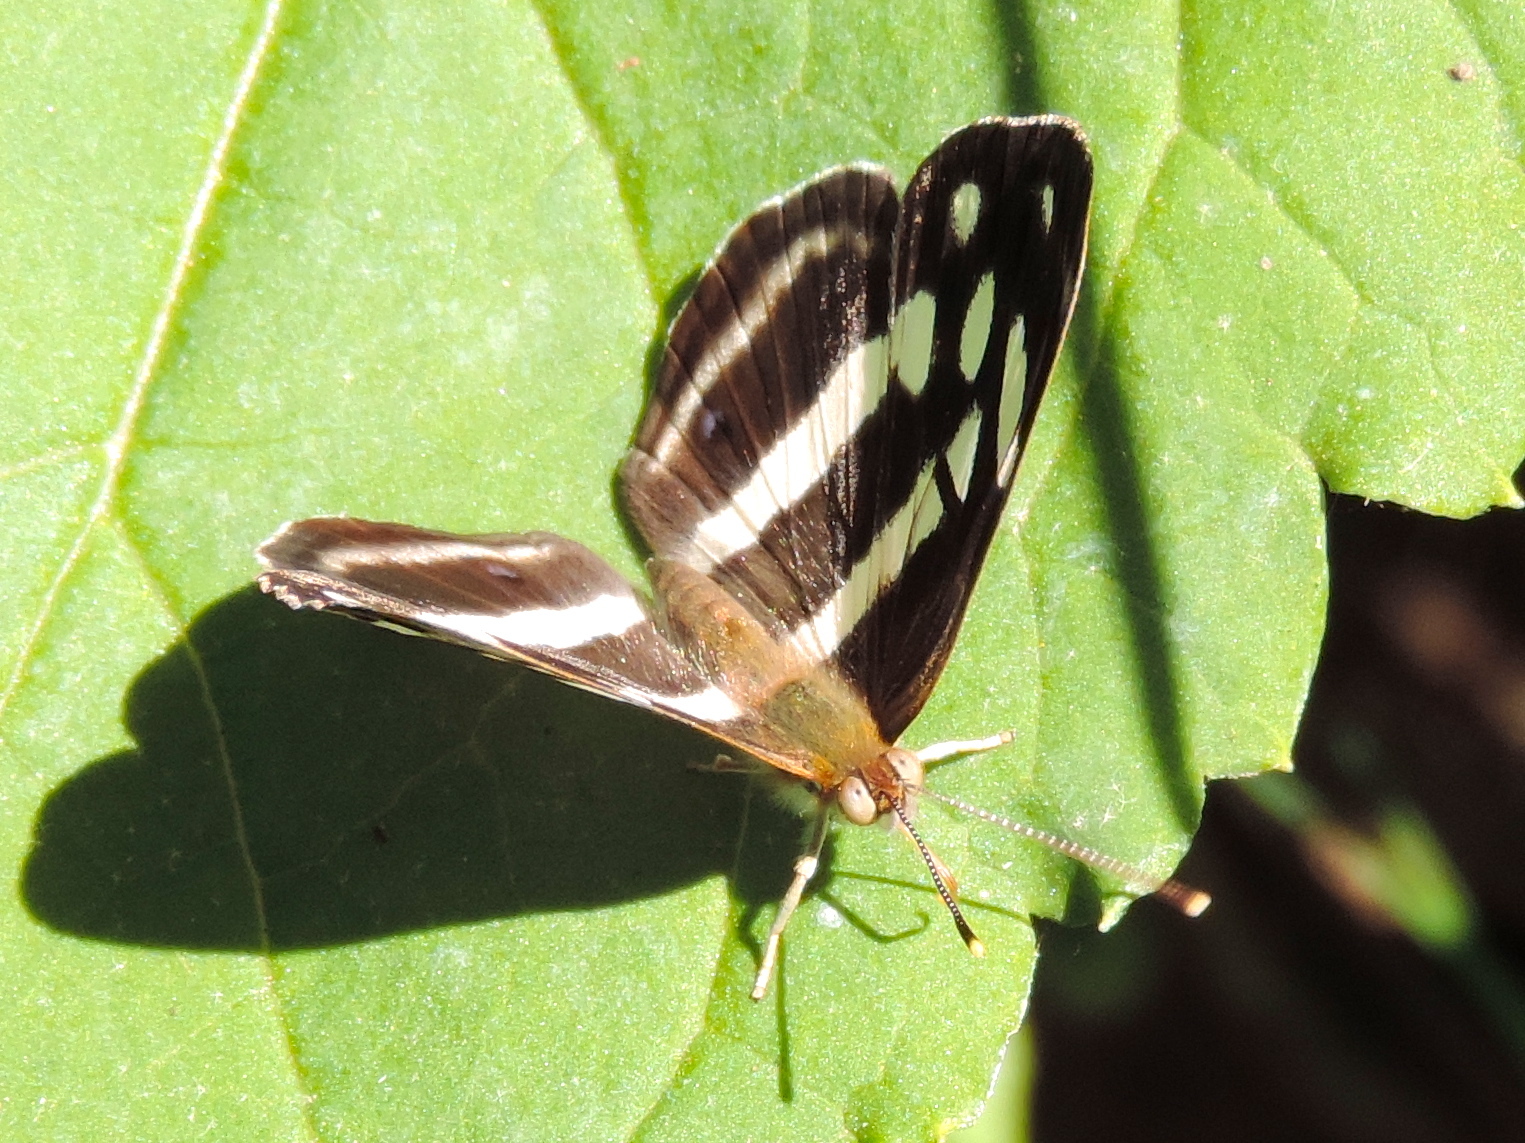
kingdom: Animalia
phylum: Arthropoda
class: Insecta
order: Lepidoptera
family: Nymphalidae
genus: Dynamine
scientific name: Dynamine mylitta
